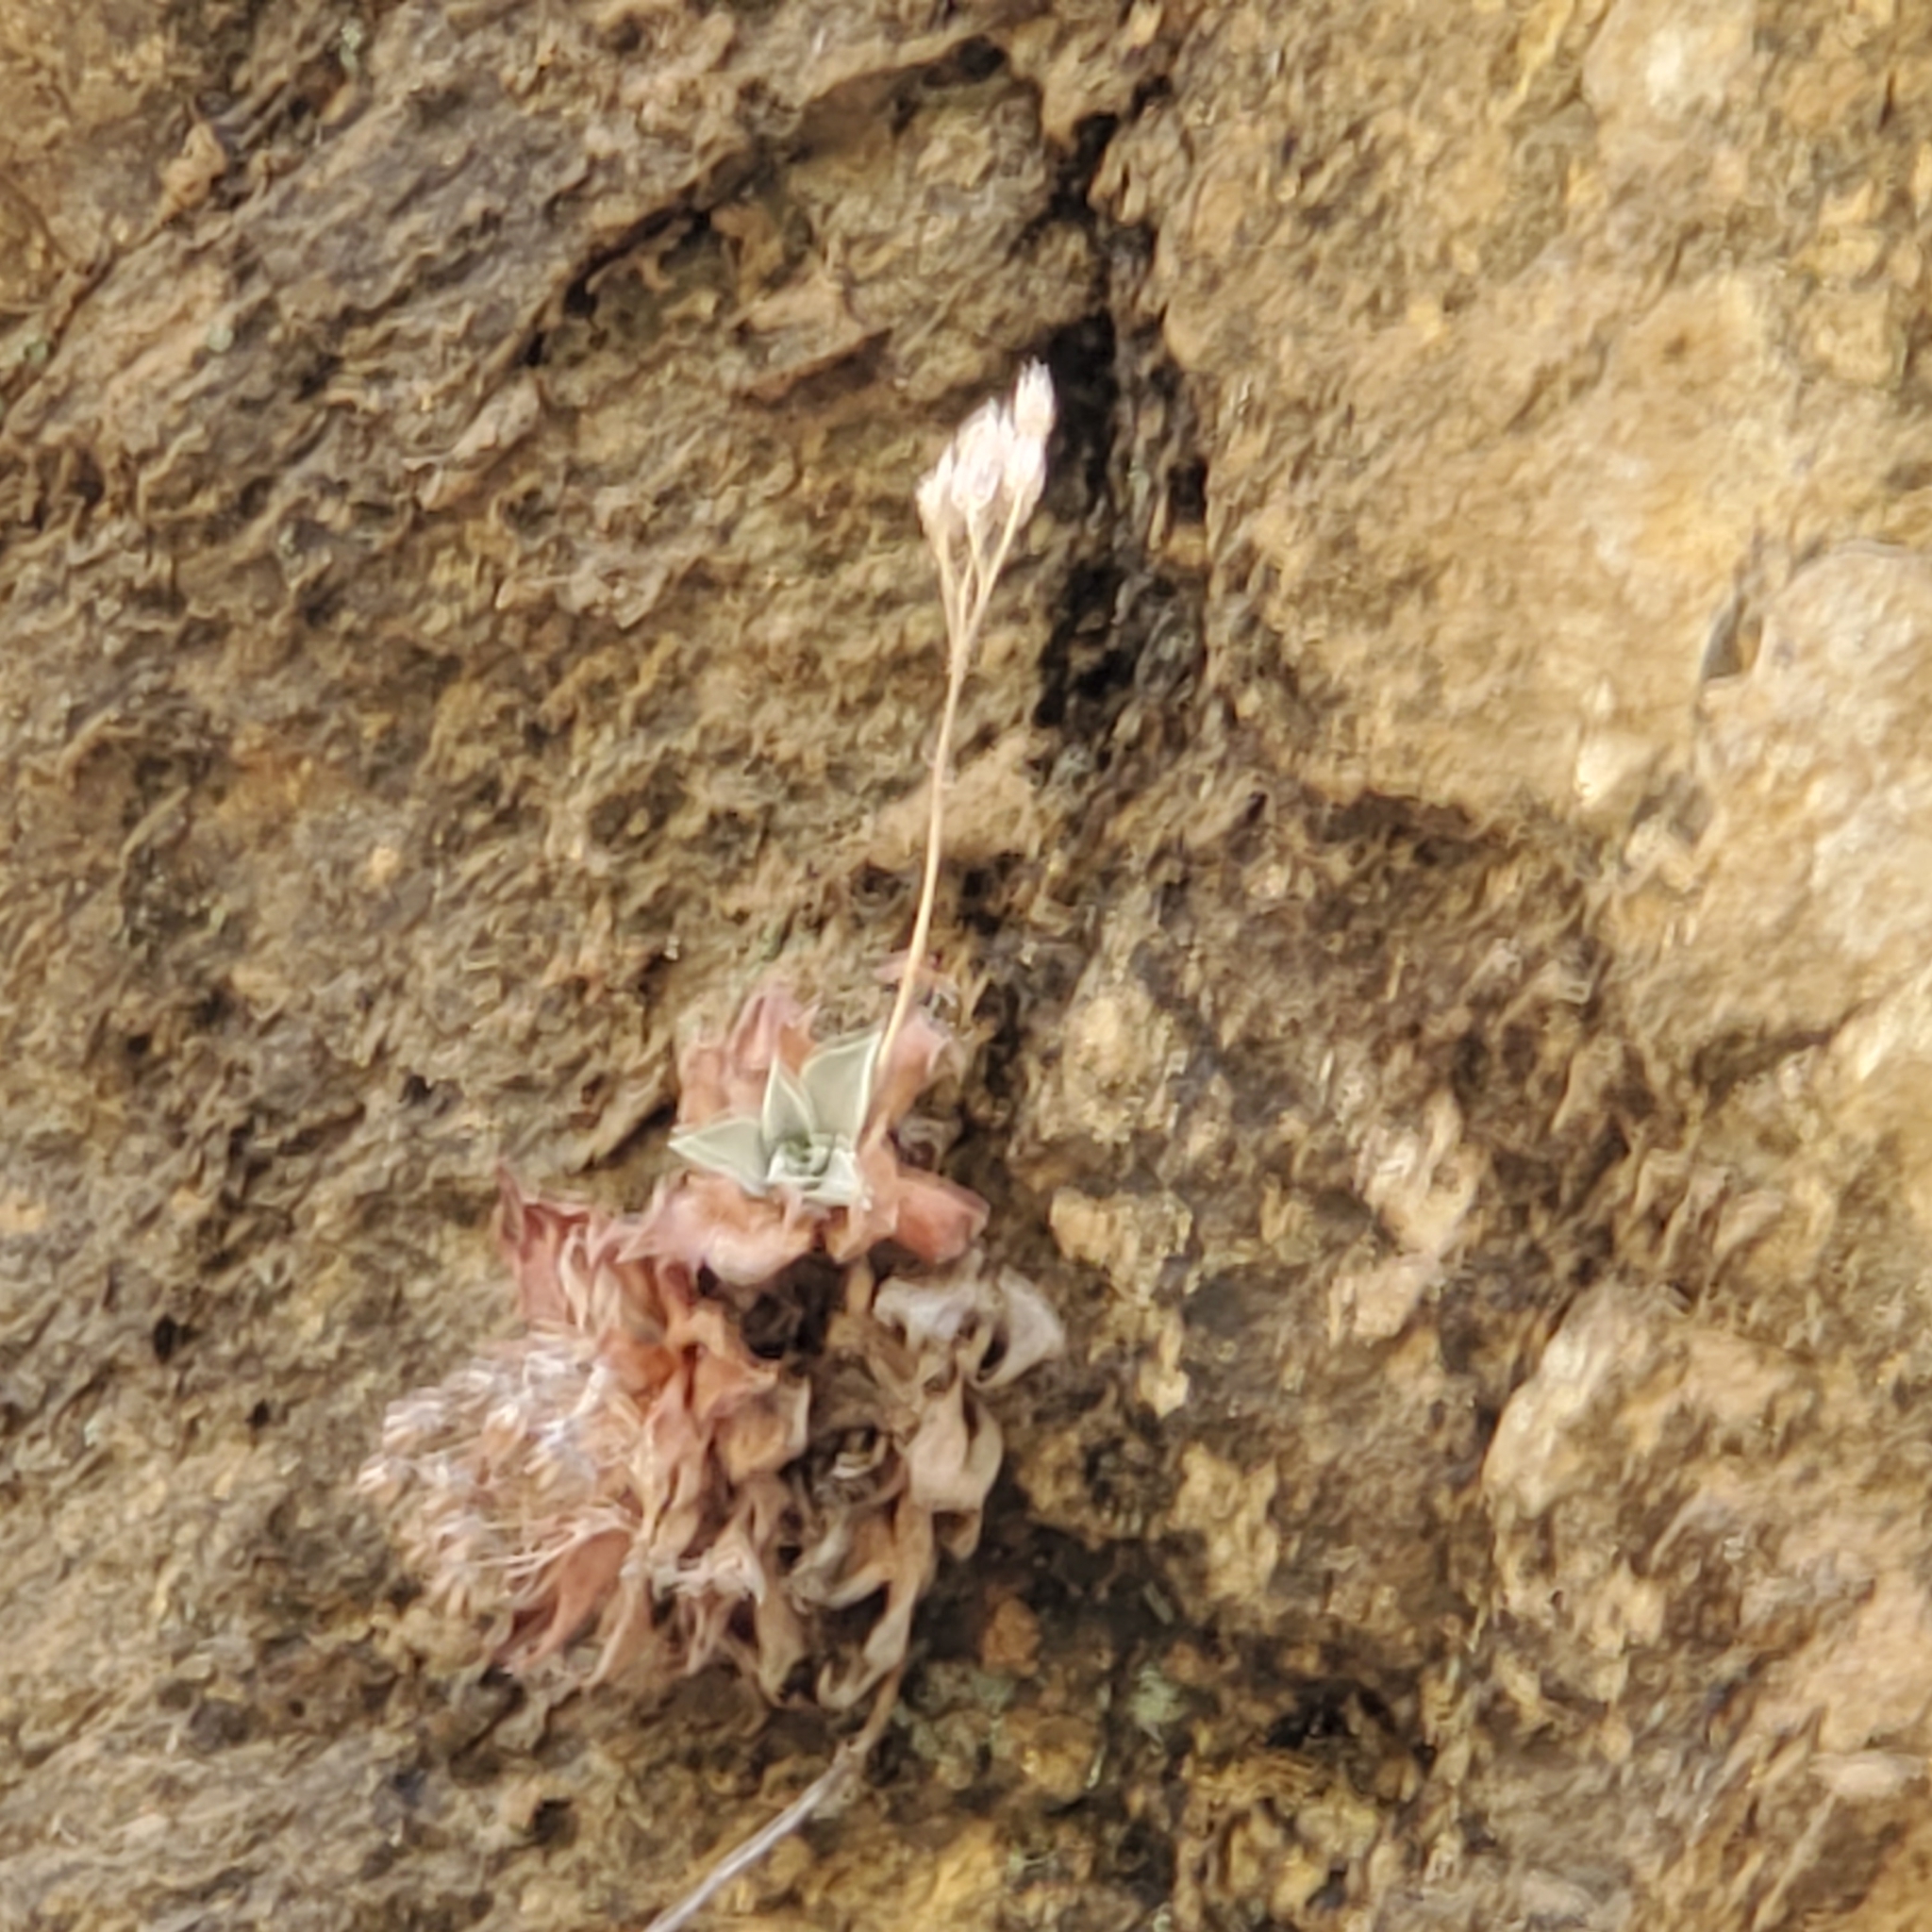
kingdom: Plantae
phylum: Tracheophyta
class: Magnoliopsida
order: Saxifragales
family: Crassulaceae
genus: Dudleya
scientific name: Dudleya cymosa
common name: Canyon dudleya
